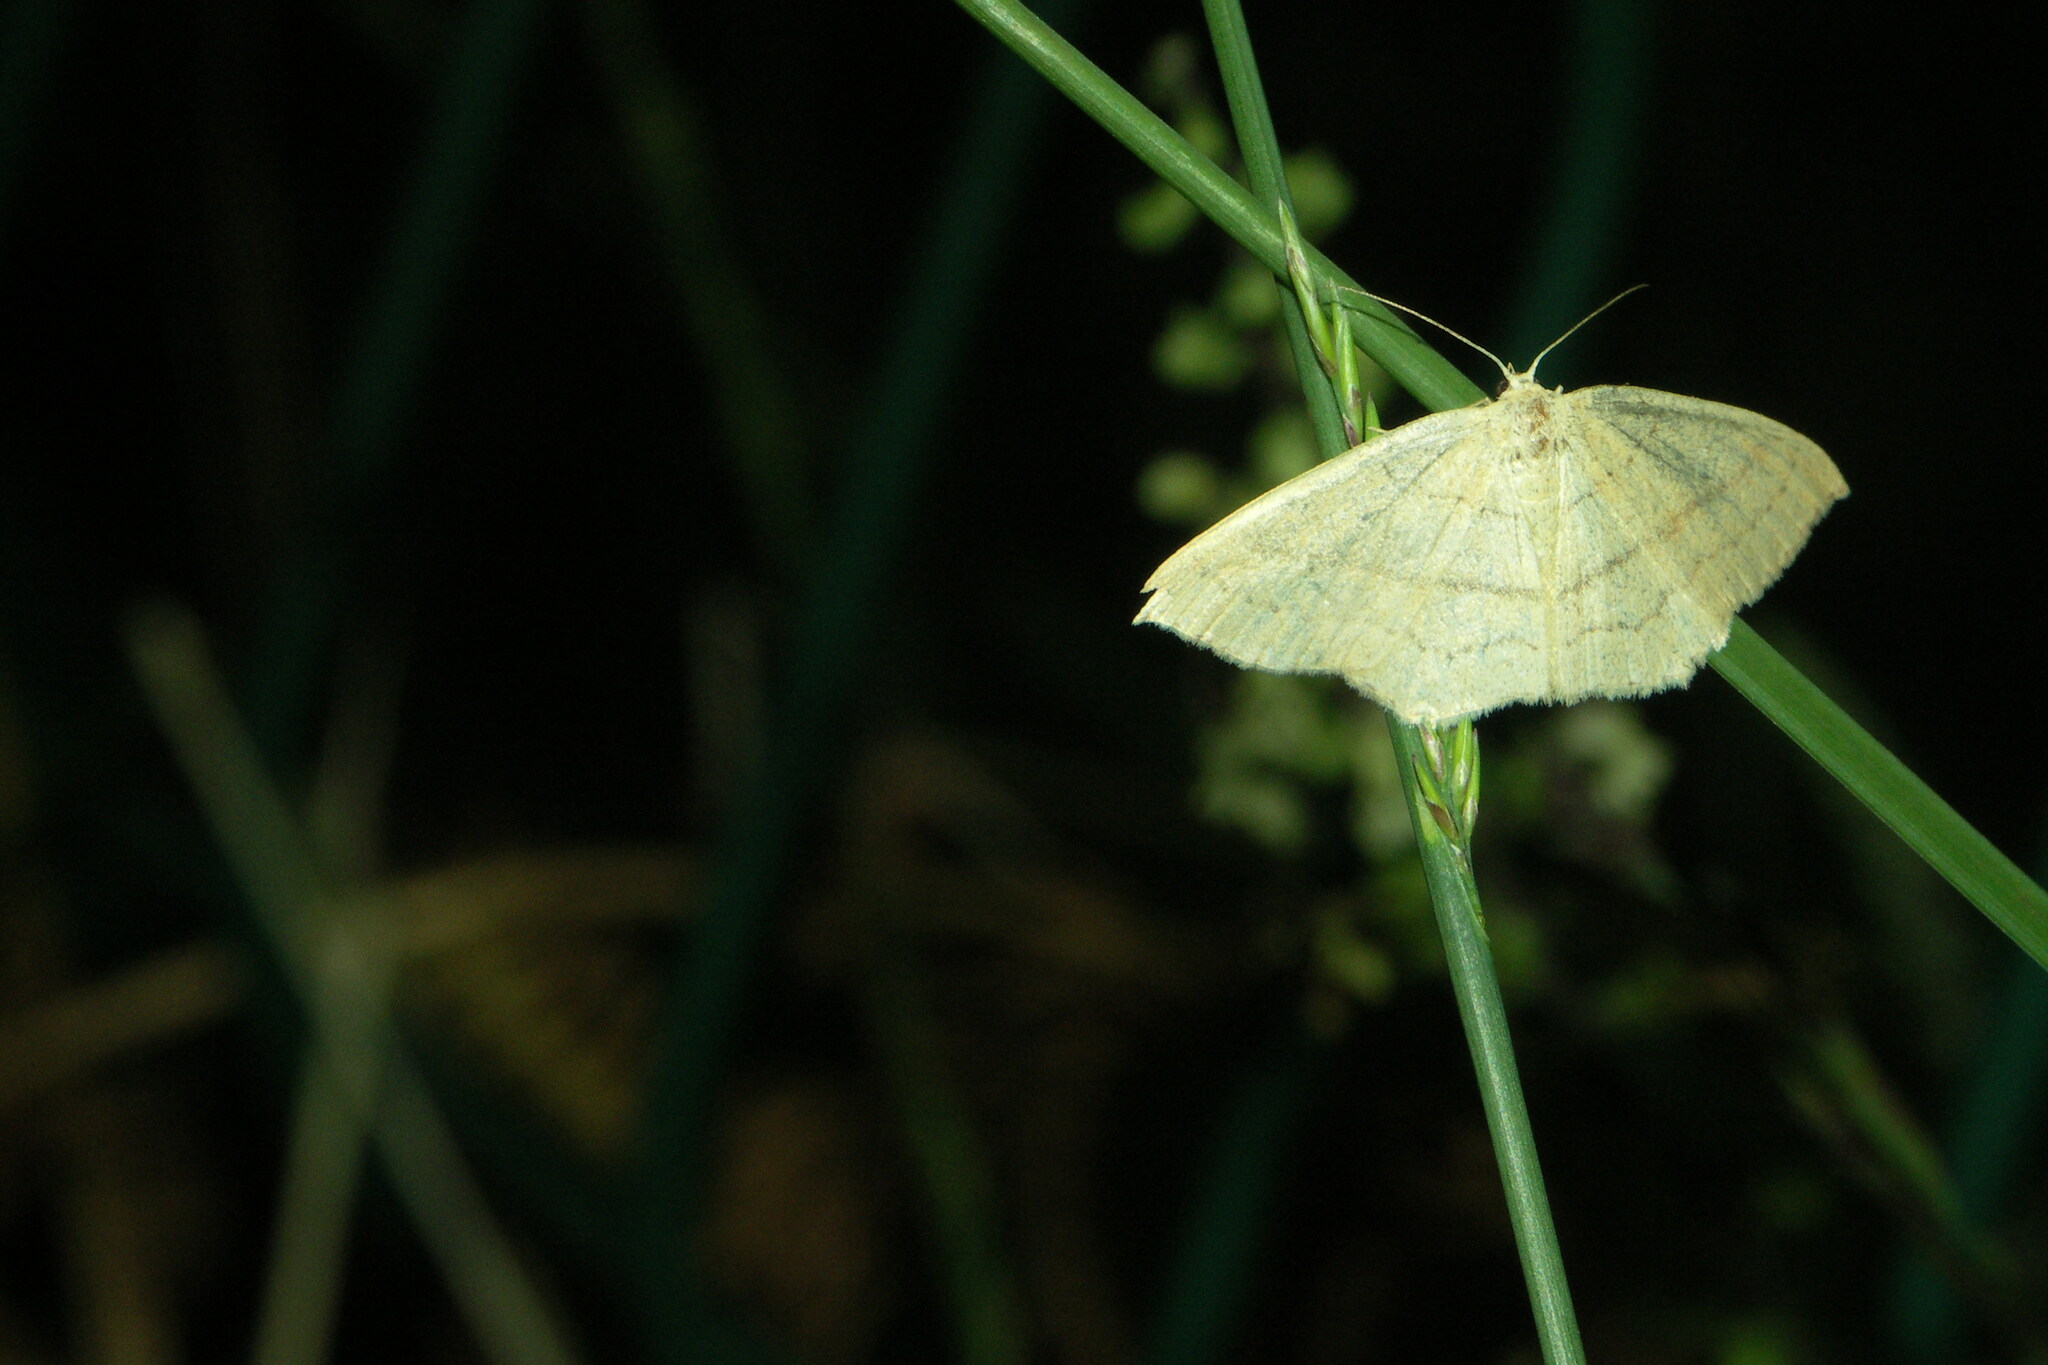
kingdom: Animalia
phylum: Arthropoda
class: Insecta
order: Lepidoptera
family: Geometridae
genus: Cyclophora
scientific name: Cyclophora linearia
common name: Clay triple-lines
